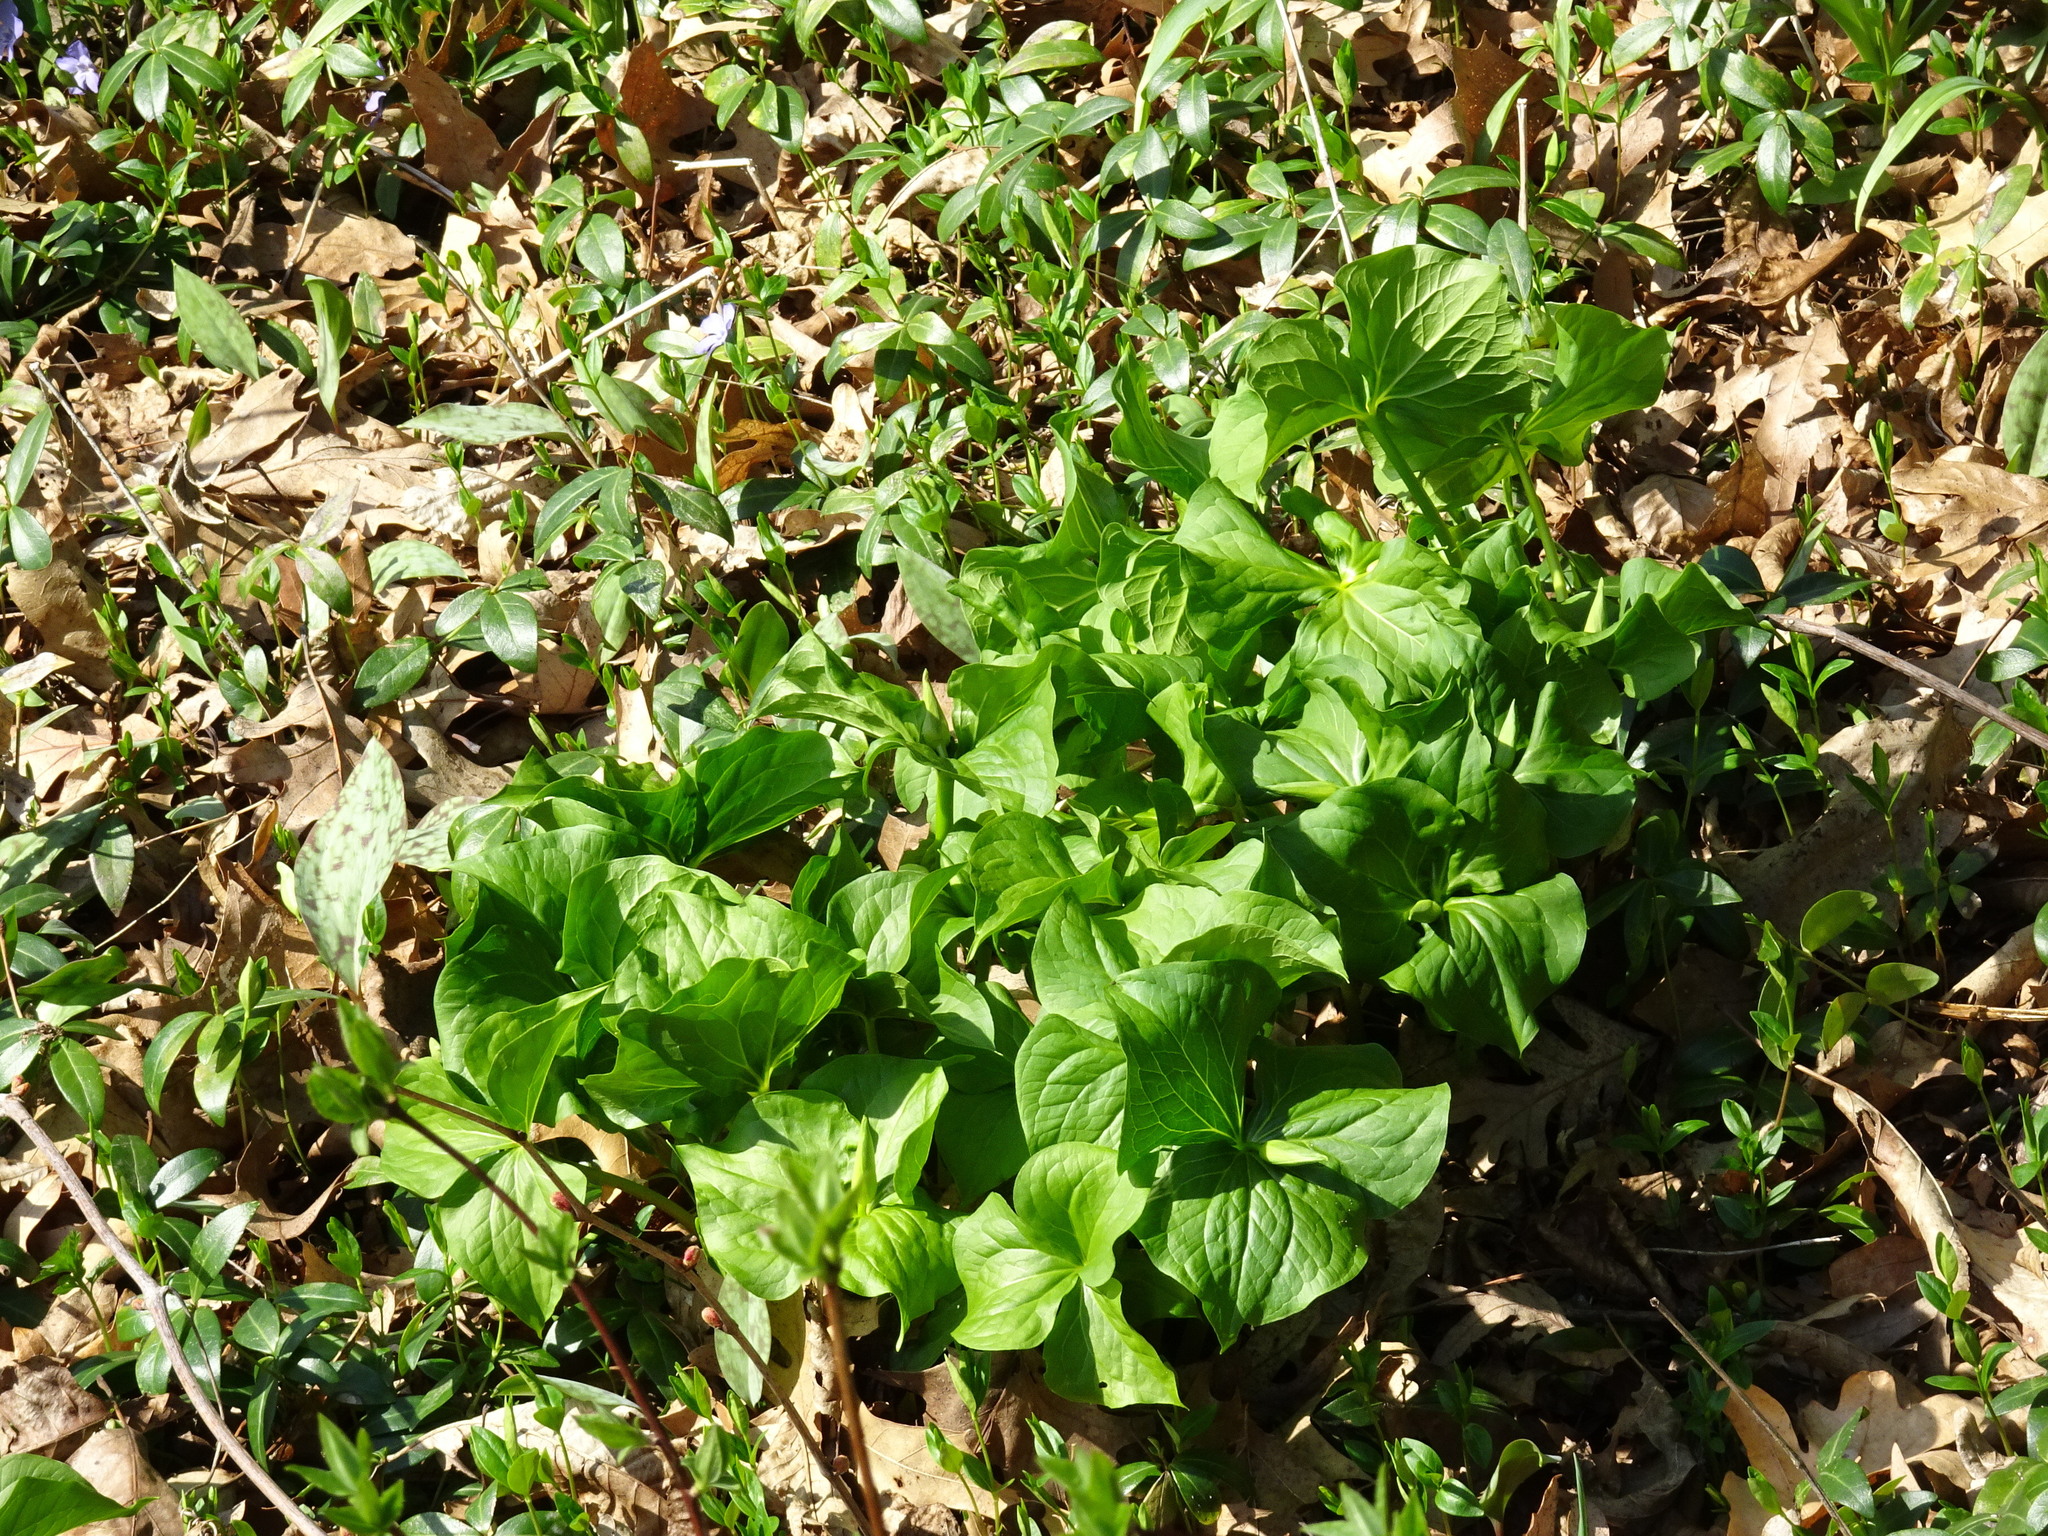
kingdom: Plantae
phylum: Tracheophyta
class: Liliopsida
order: Liliales
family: Melanthiaceae
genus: Trillium
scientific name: Trillium flexipes
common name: Drooping trillium
